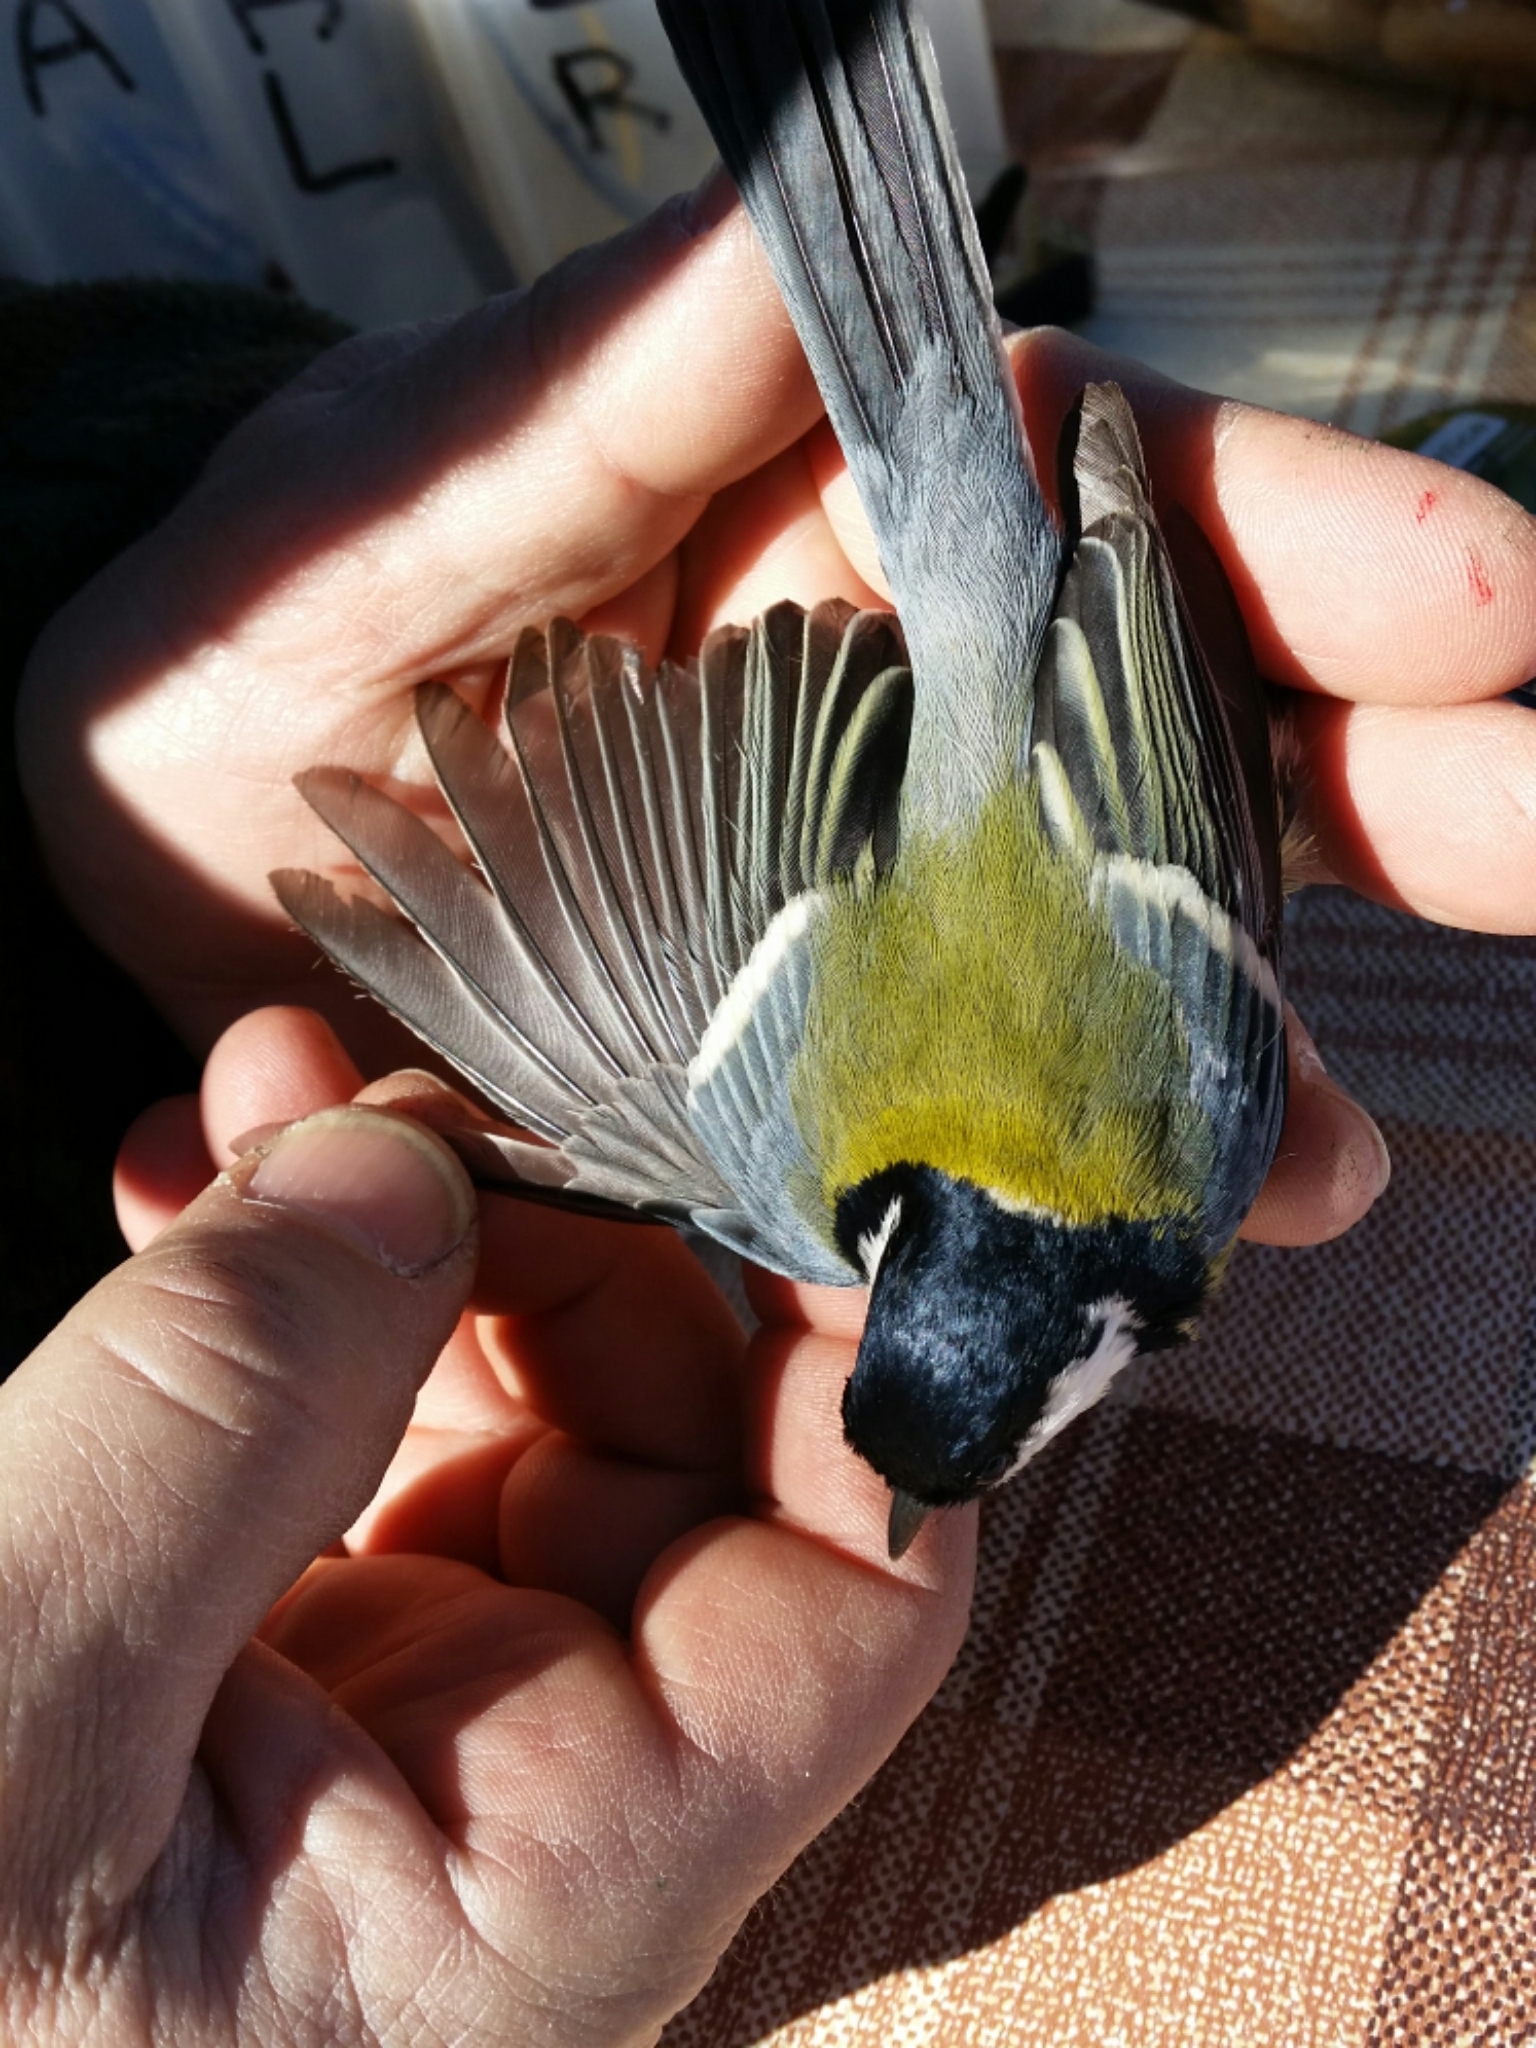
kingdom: Animalia
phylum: Chordata
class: Aves
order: Passeriformes
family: Paridae
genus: Parus
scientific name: Parus major
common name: Great tit
